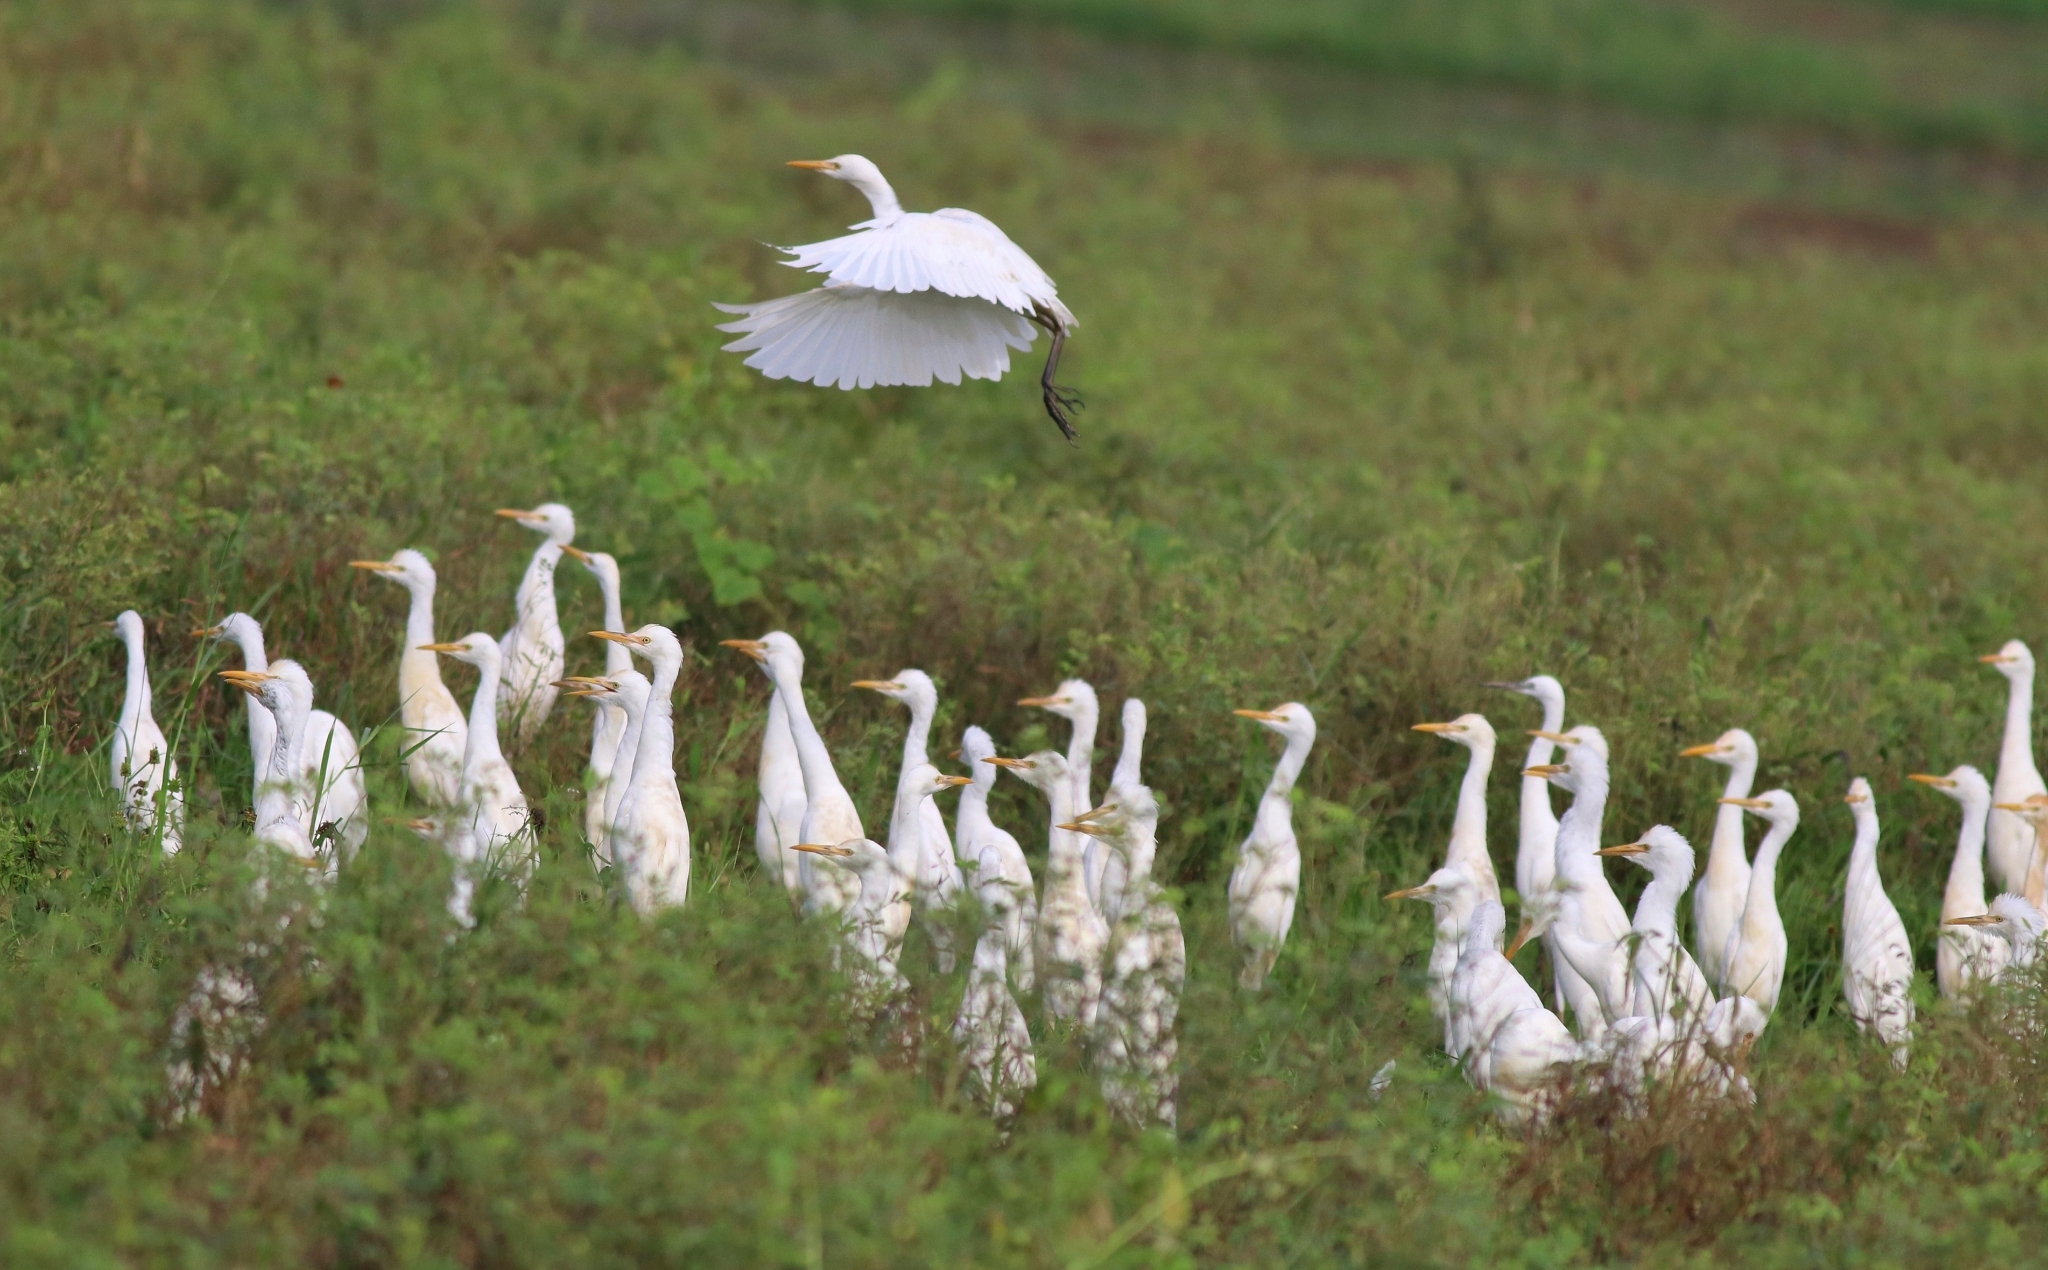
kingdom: Animalia
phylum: Chordata
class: Aves
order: Pelecaniformes
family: Ardeidae
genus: Bubulcus
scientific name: Bubulcus coromandus
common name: Eastern cattle egret
